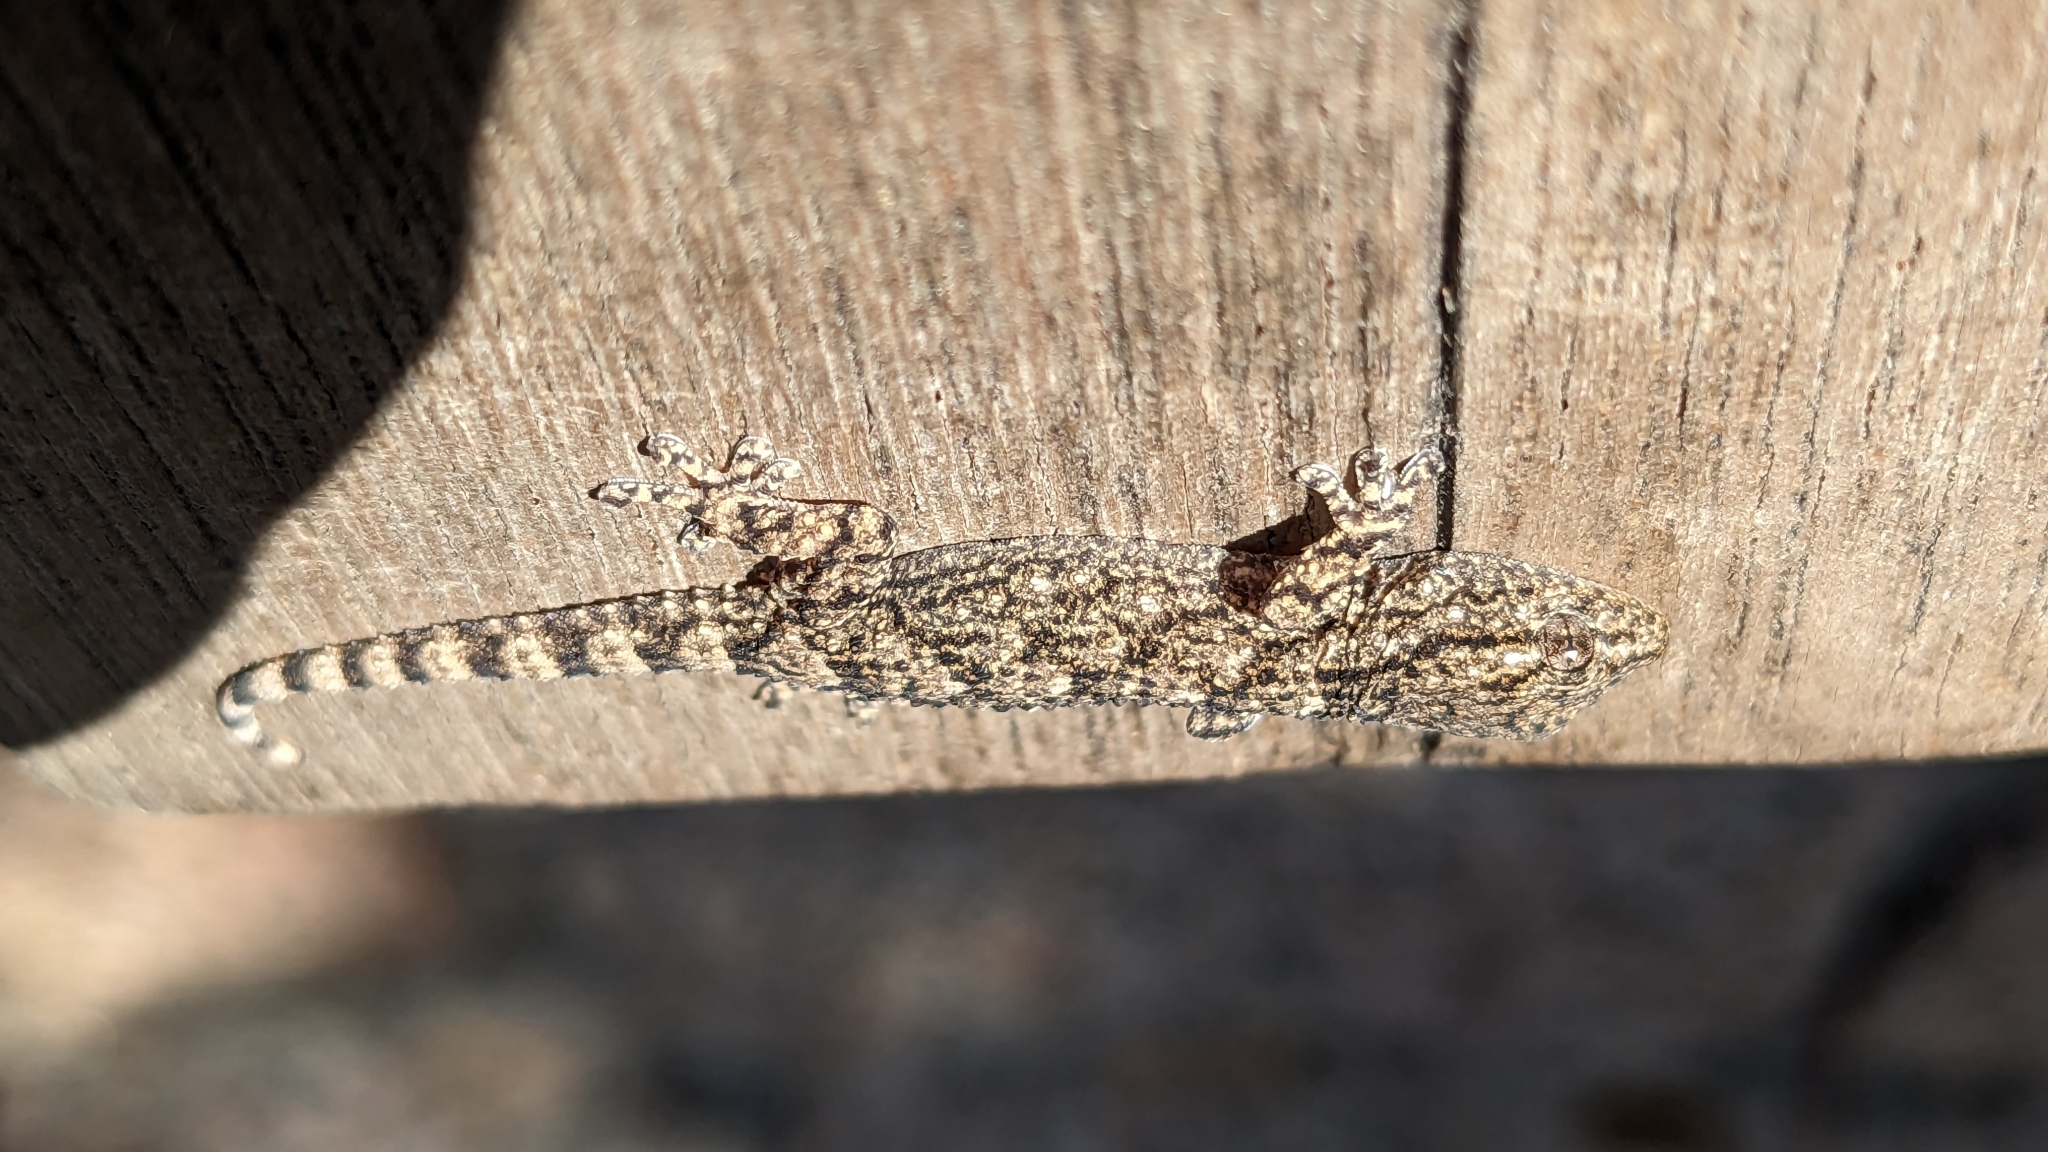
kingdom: Animalia
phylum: Chordata
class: Squamata
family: Phyllodactylidae
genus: Tarentola
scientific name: Tarentola mauritanica
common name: Moorish gecko
